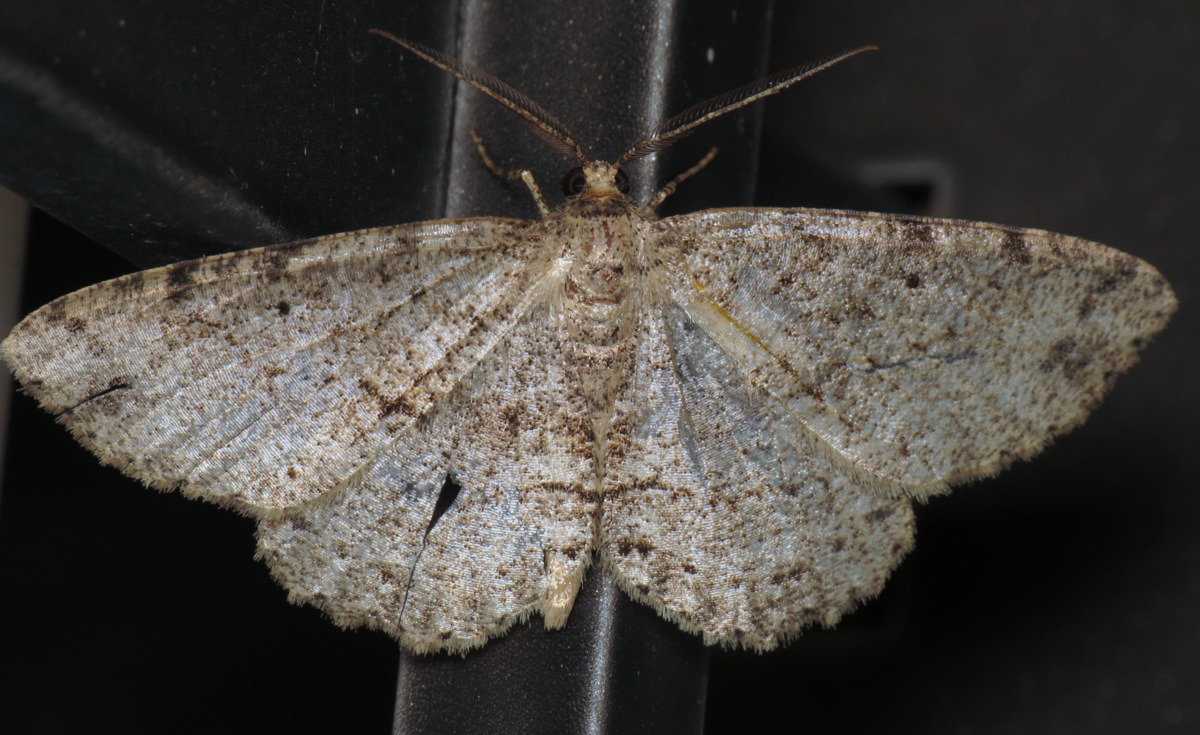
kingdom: Animalia
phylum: Arthropoda
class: Insecta
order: Lepidoptera
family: Geometridae
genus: Melanolophia
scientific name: Melanolophia canadaria
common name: Canadian melanolophia
